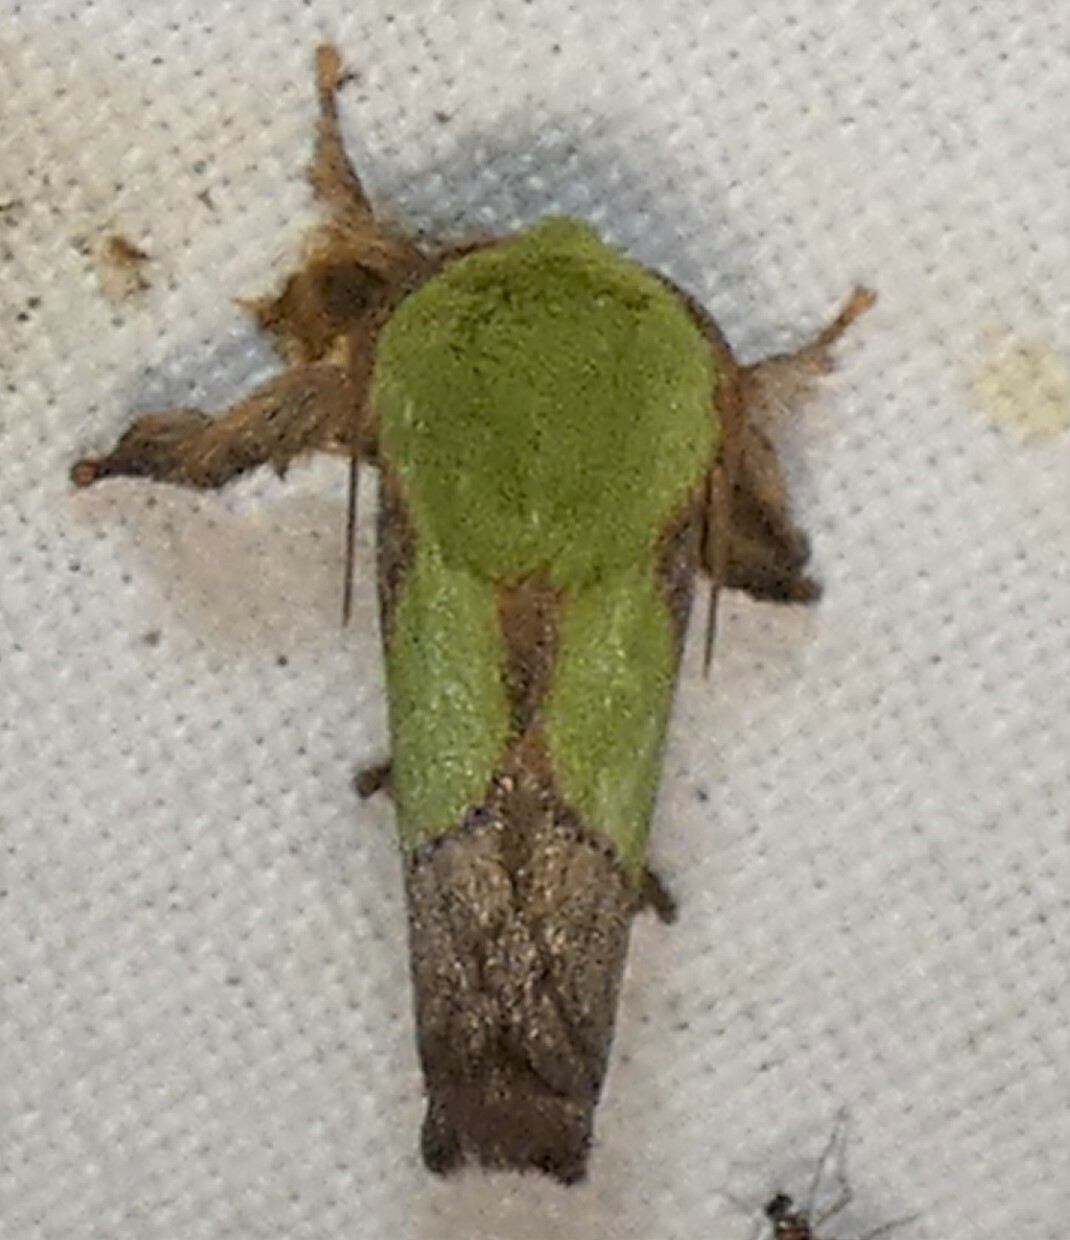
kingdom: Animalia
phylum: Arthropoda
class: Insecta
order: Lepidoptera
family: Limacodidae
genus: Parasa
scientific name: Parasa chloris
